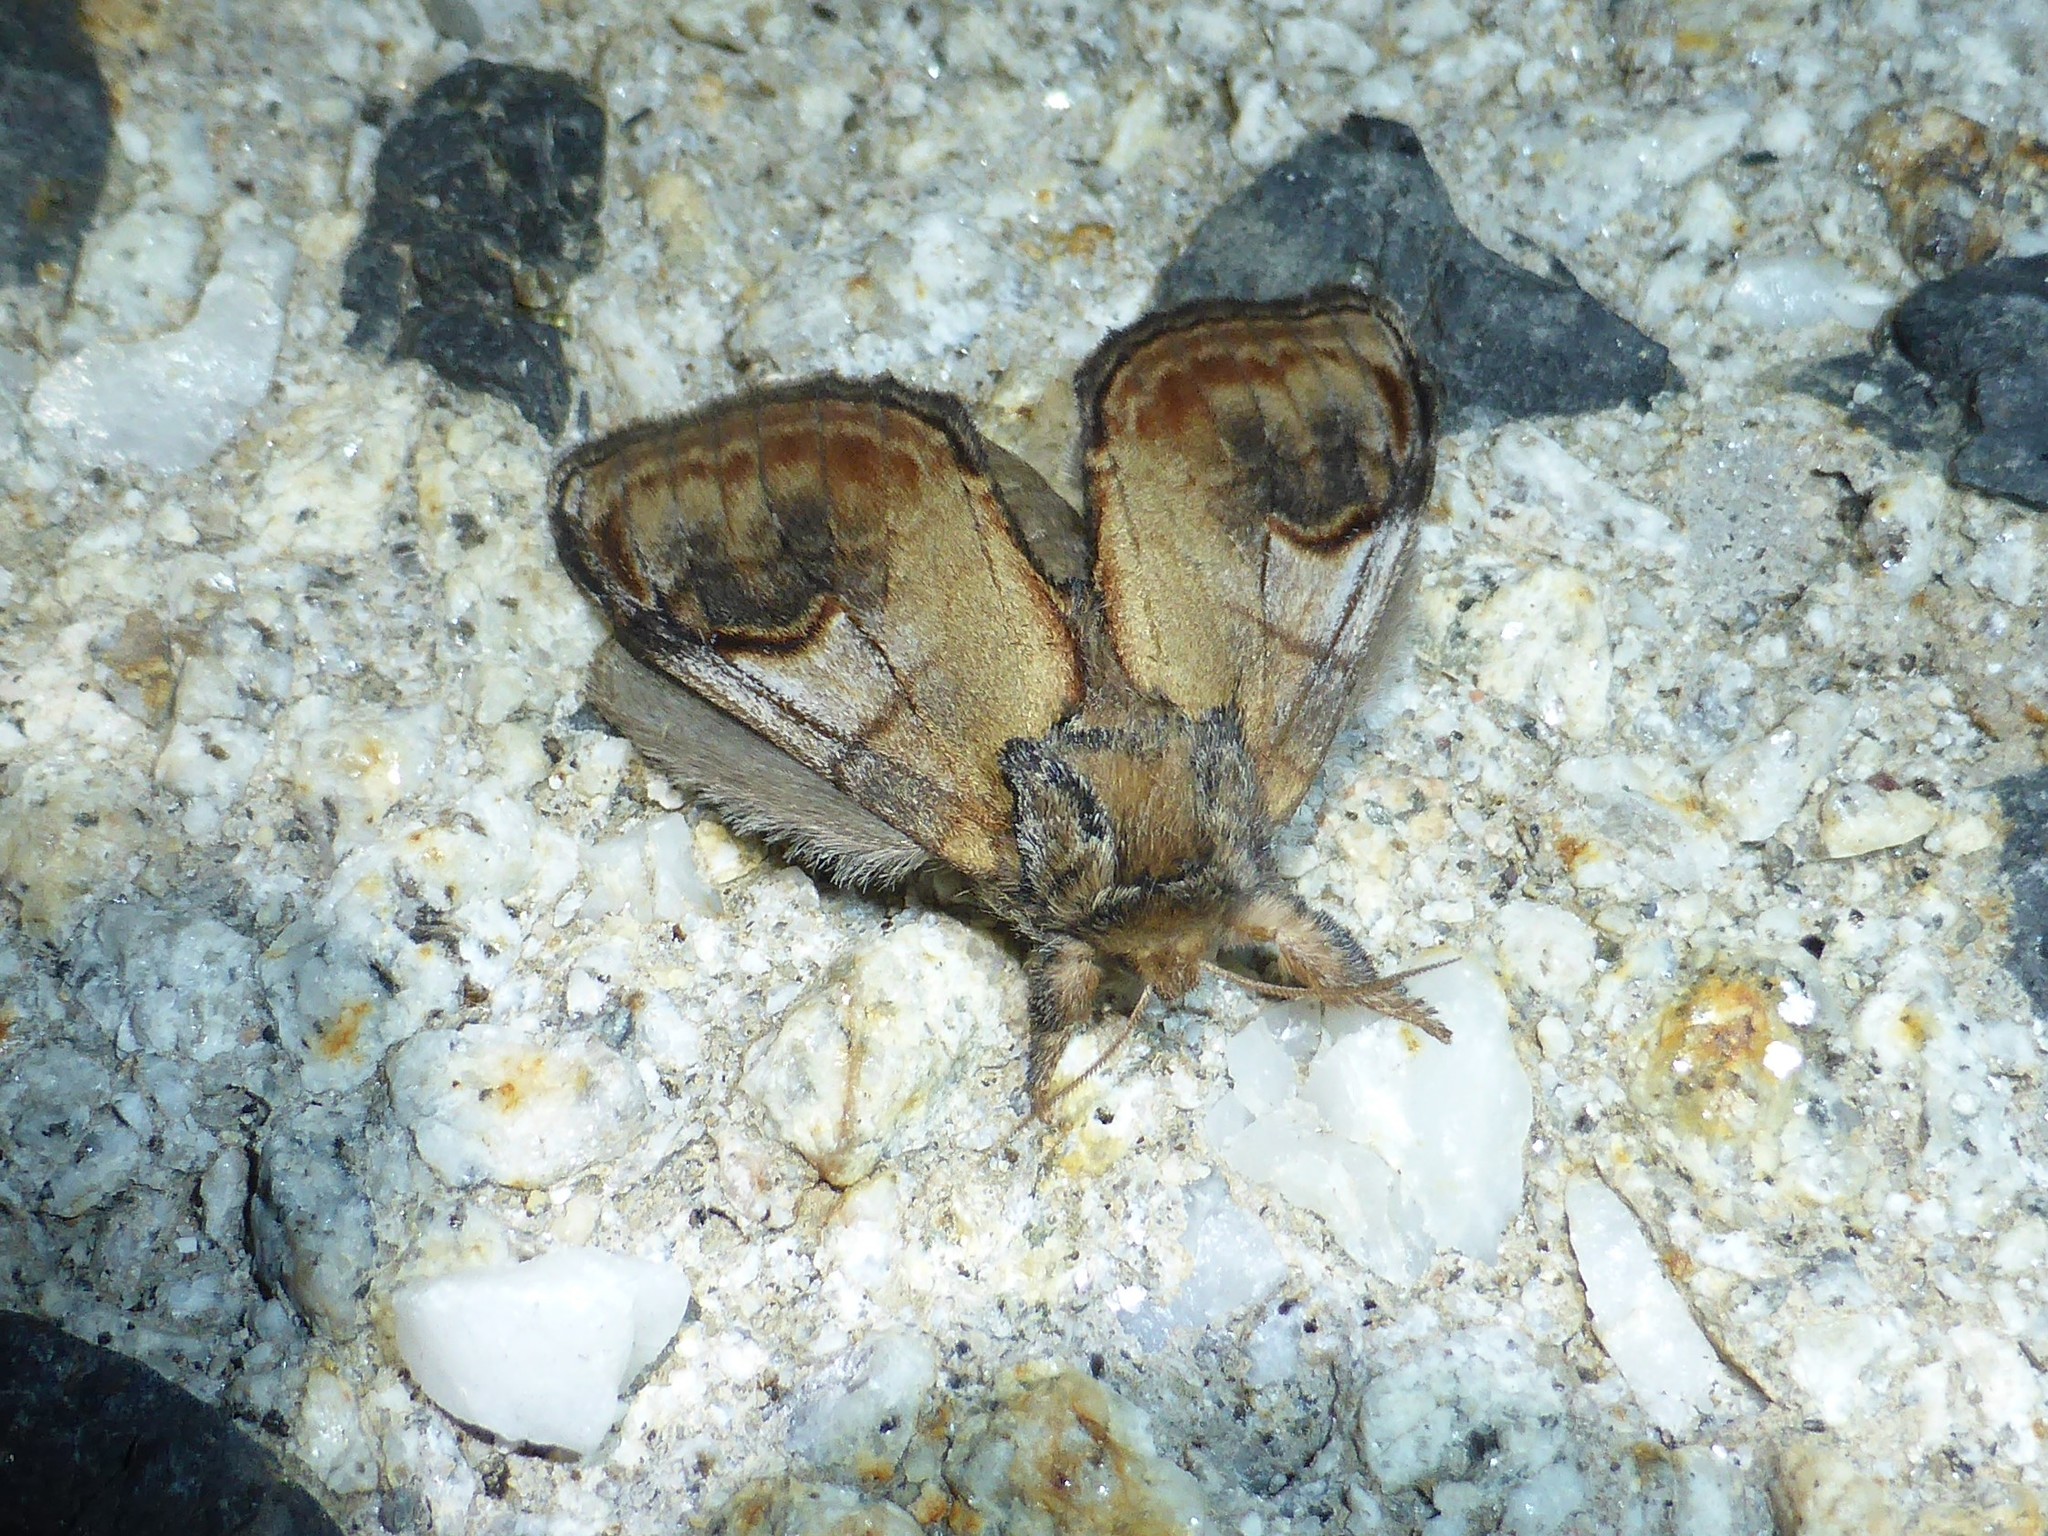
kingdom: Animalia
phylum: Arthropoda
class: Insecta
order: Lepidoptera
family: Notodontidae
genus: Notodonta
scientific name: Notodonta ziczac
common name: Pebble prominent
